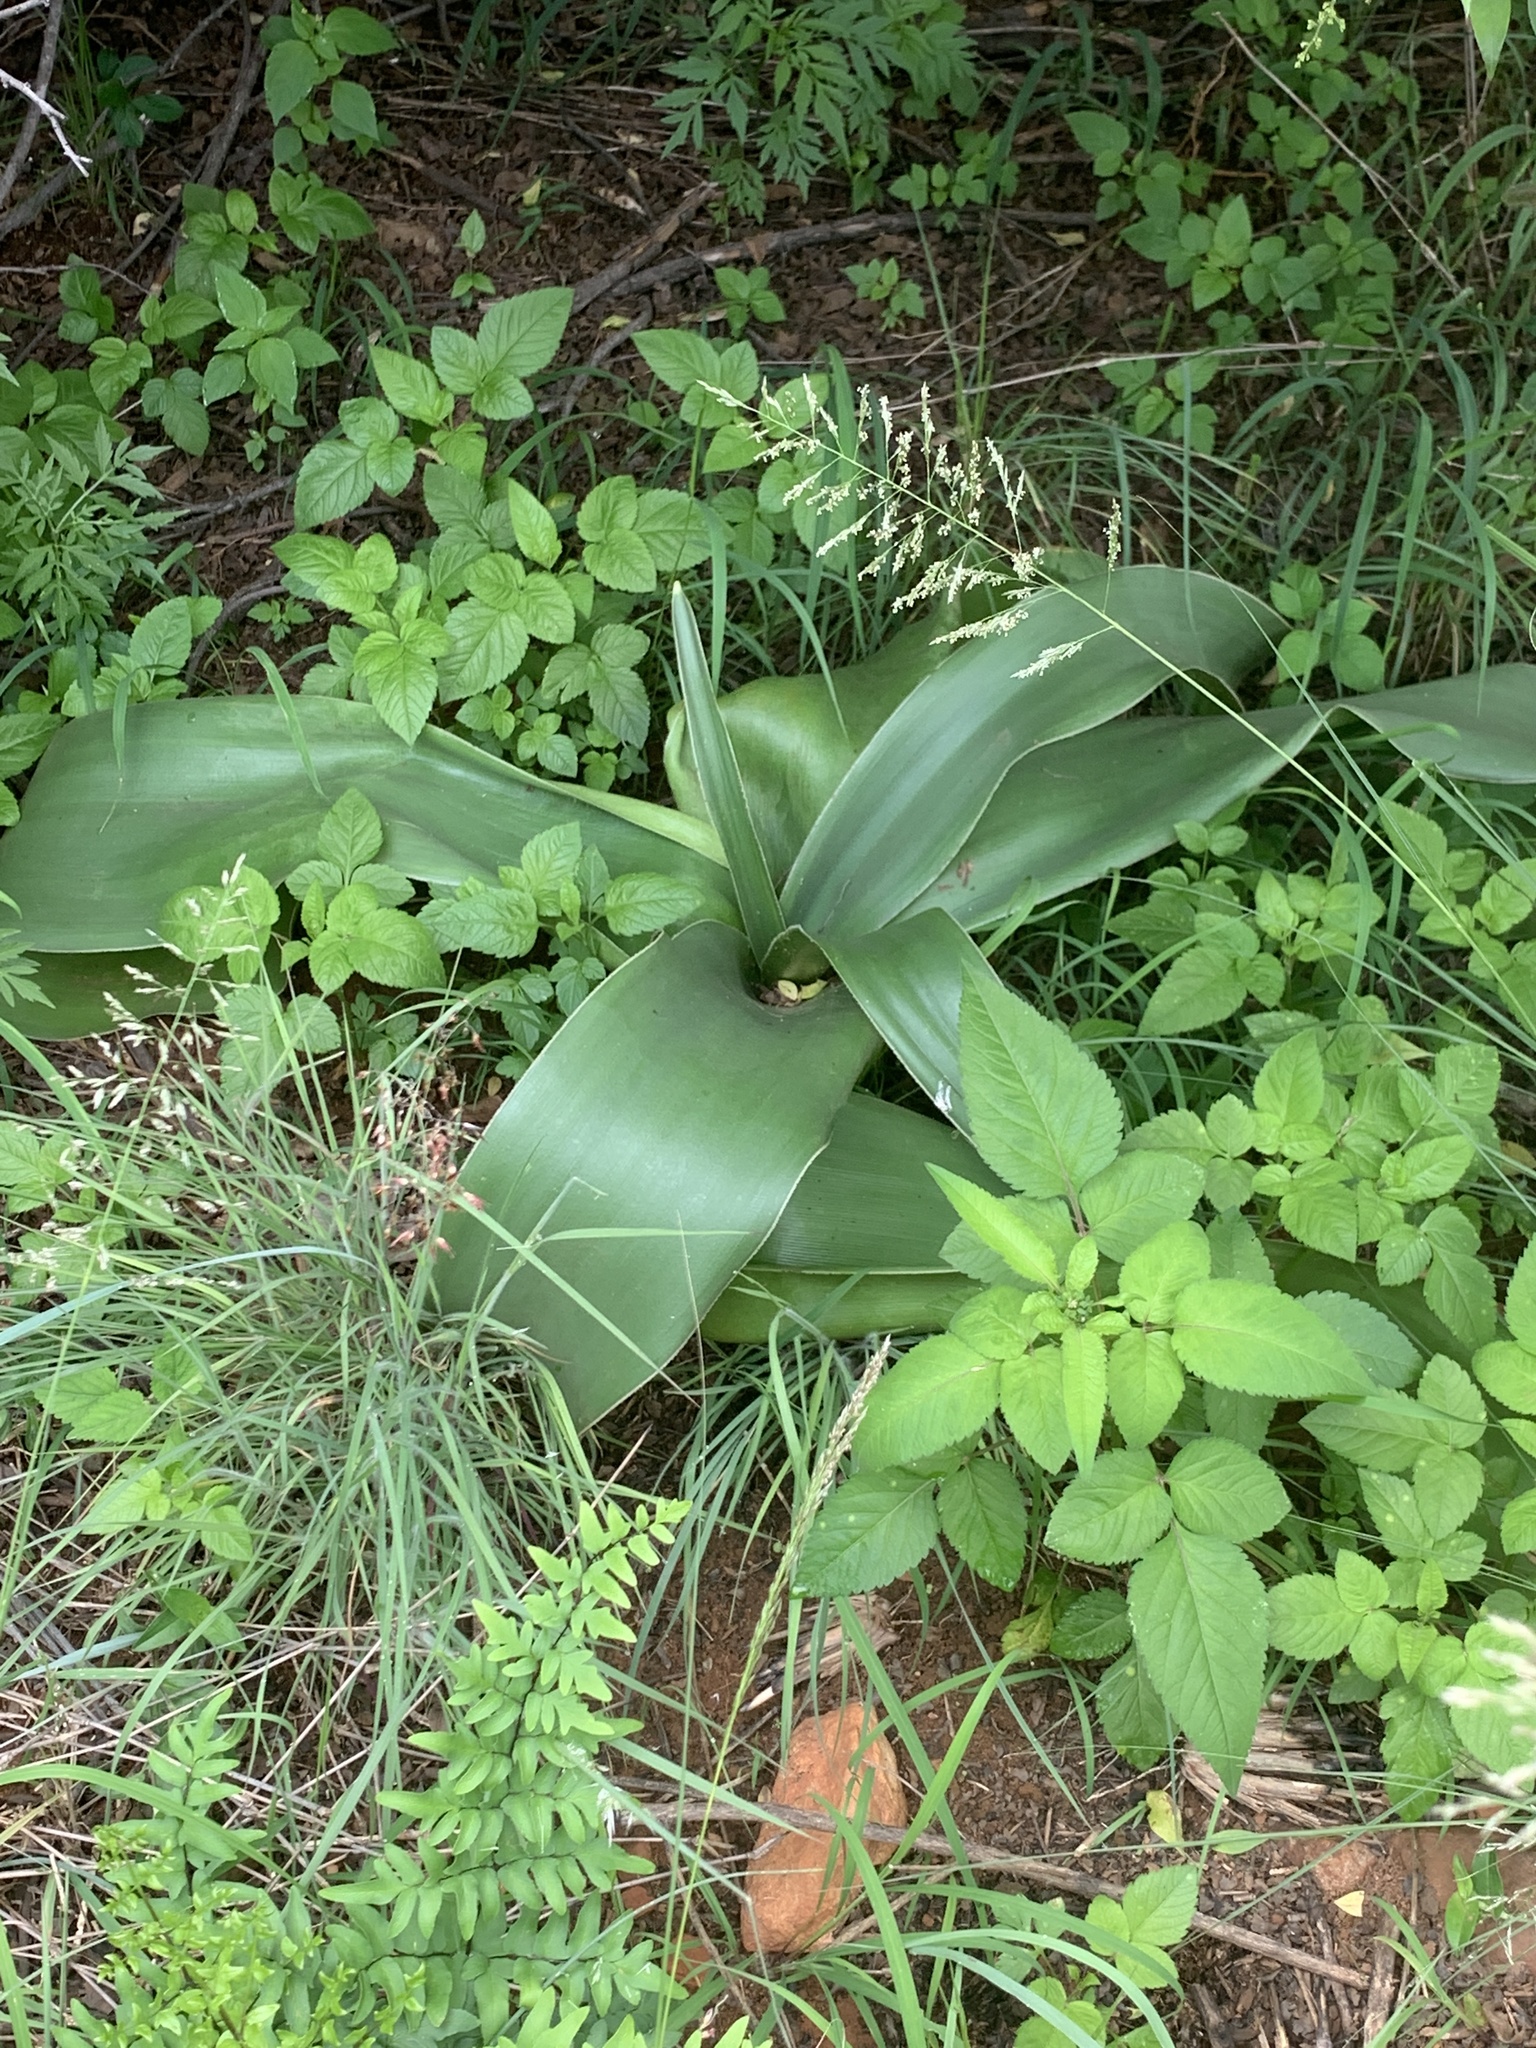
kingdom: Plantae
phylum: Tracheophyta
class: Liliopsida
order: Asparagales
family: Amaryllidaceae
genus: Crinum
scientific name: Crinum graminicola
